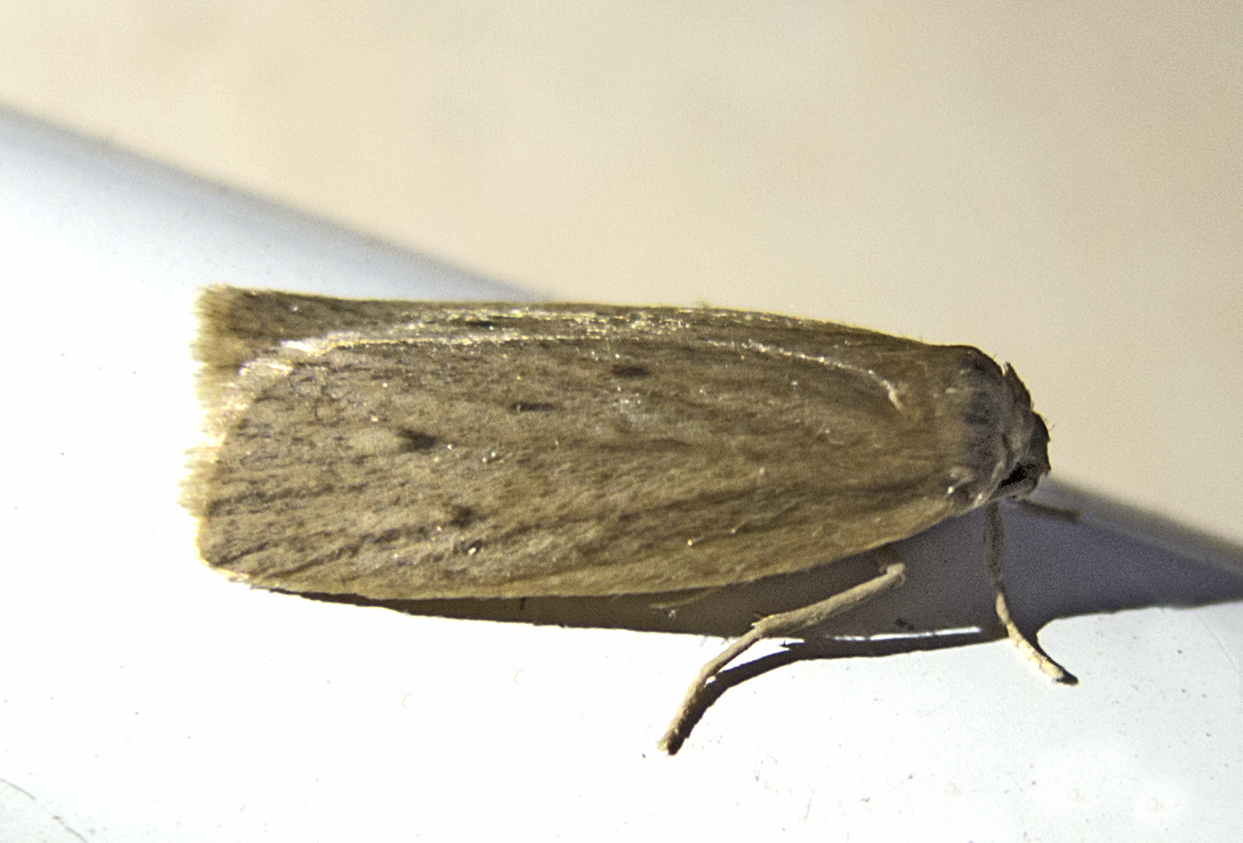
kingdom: Animalia
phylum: Arthropoda
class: Insecta
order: Lepidoptera
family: Erebidae
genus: Pelosia
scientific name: Pelosia obtusa
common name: Small dotted footman
